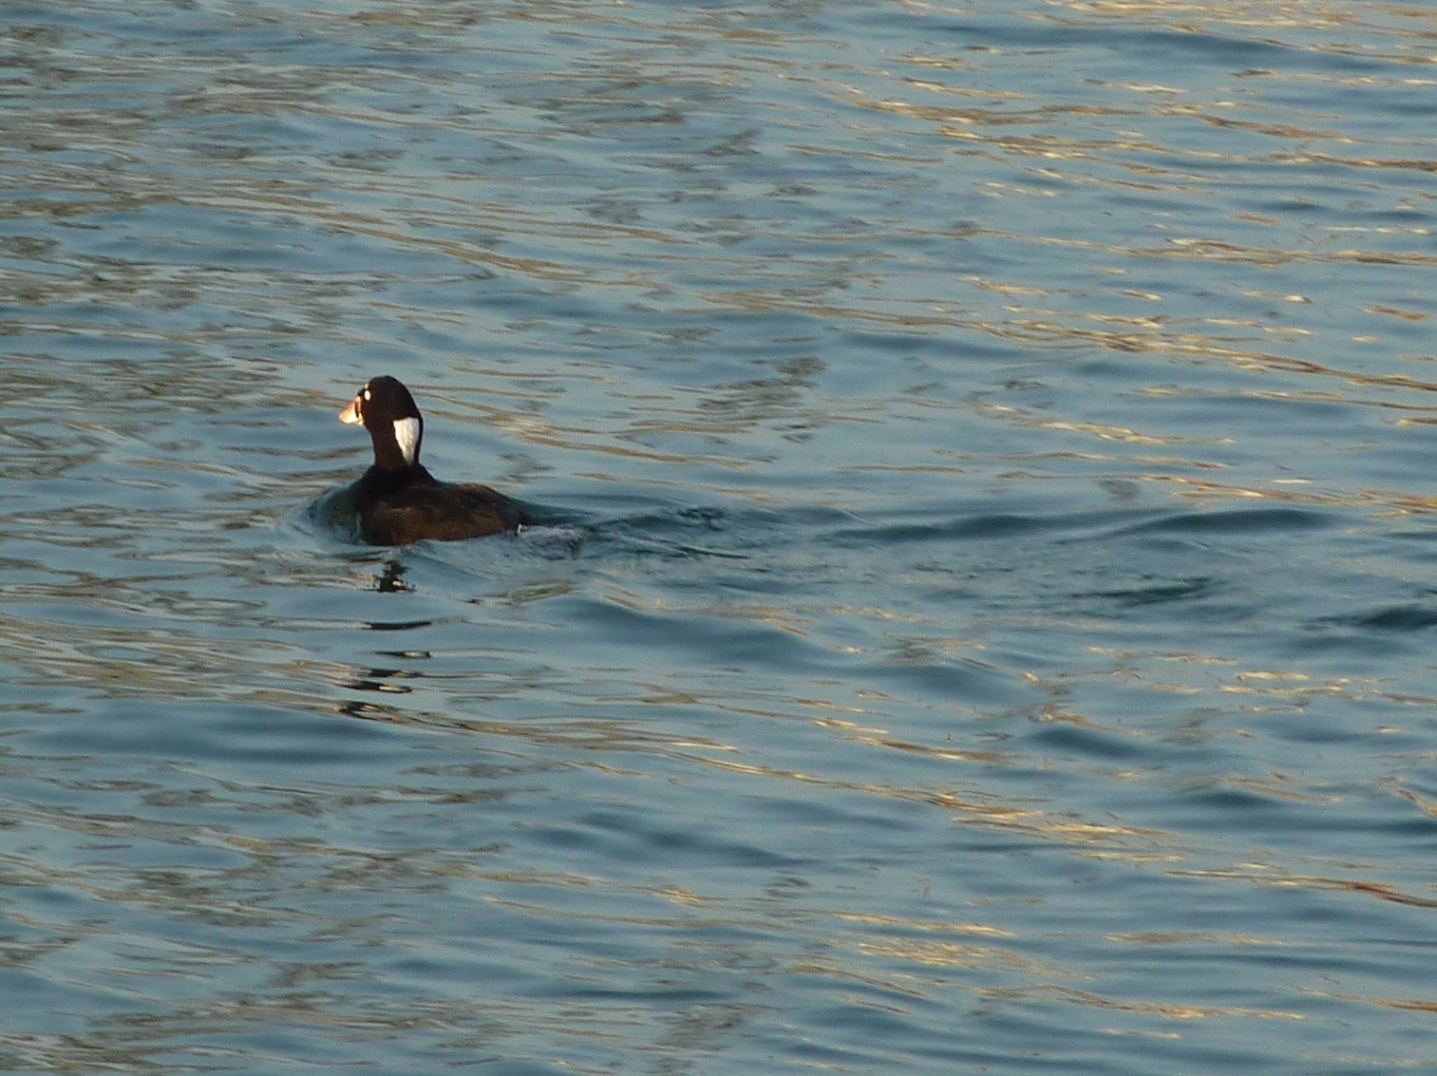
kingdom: Animalia
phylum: Chordata
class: Aves
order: Anseriformes
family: Anatidae
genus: Melanitta
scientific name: Melanitta perspicillata
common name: Surf scoter
